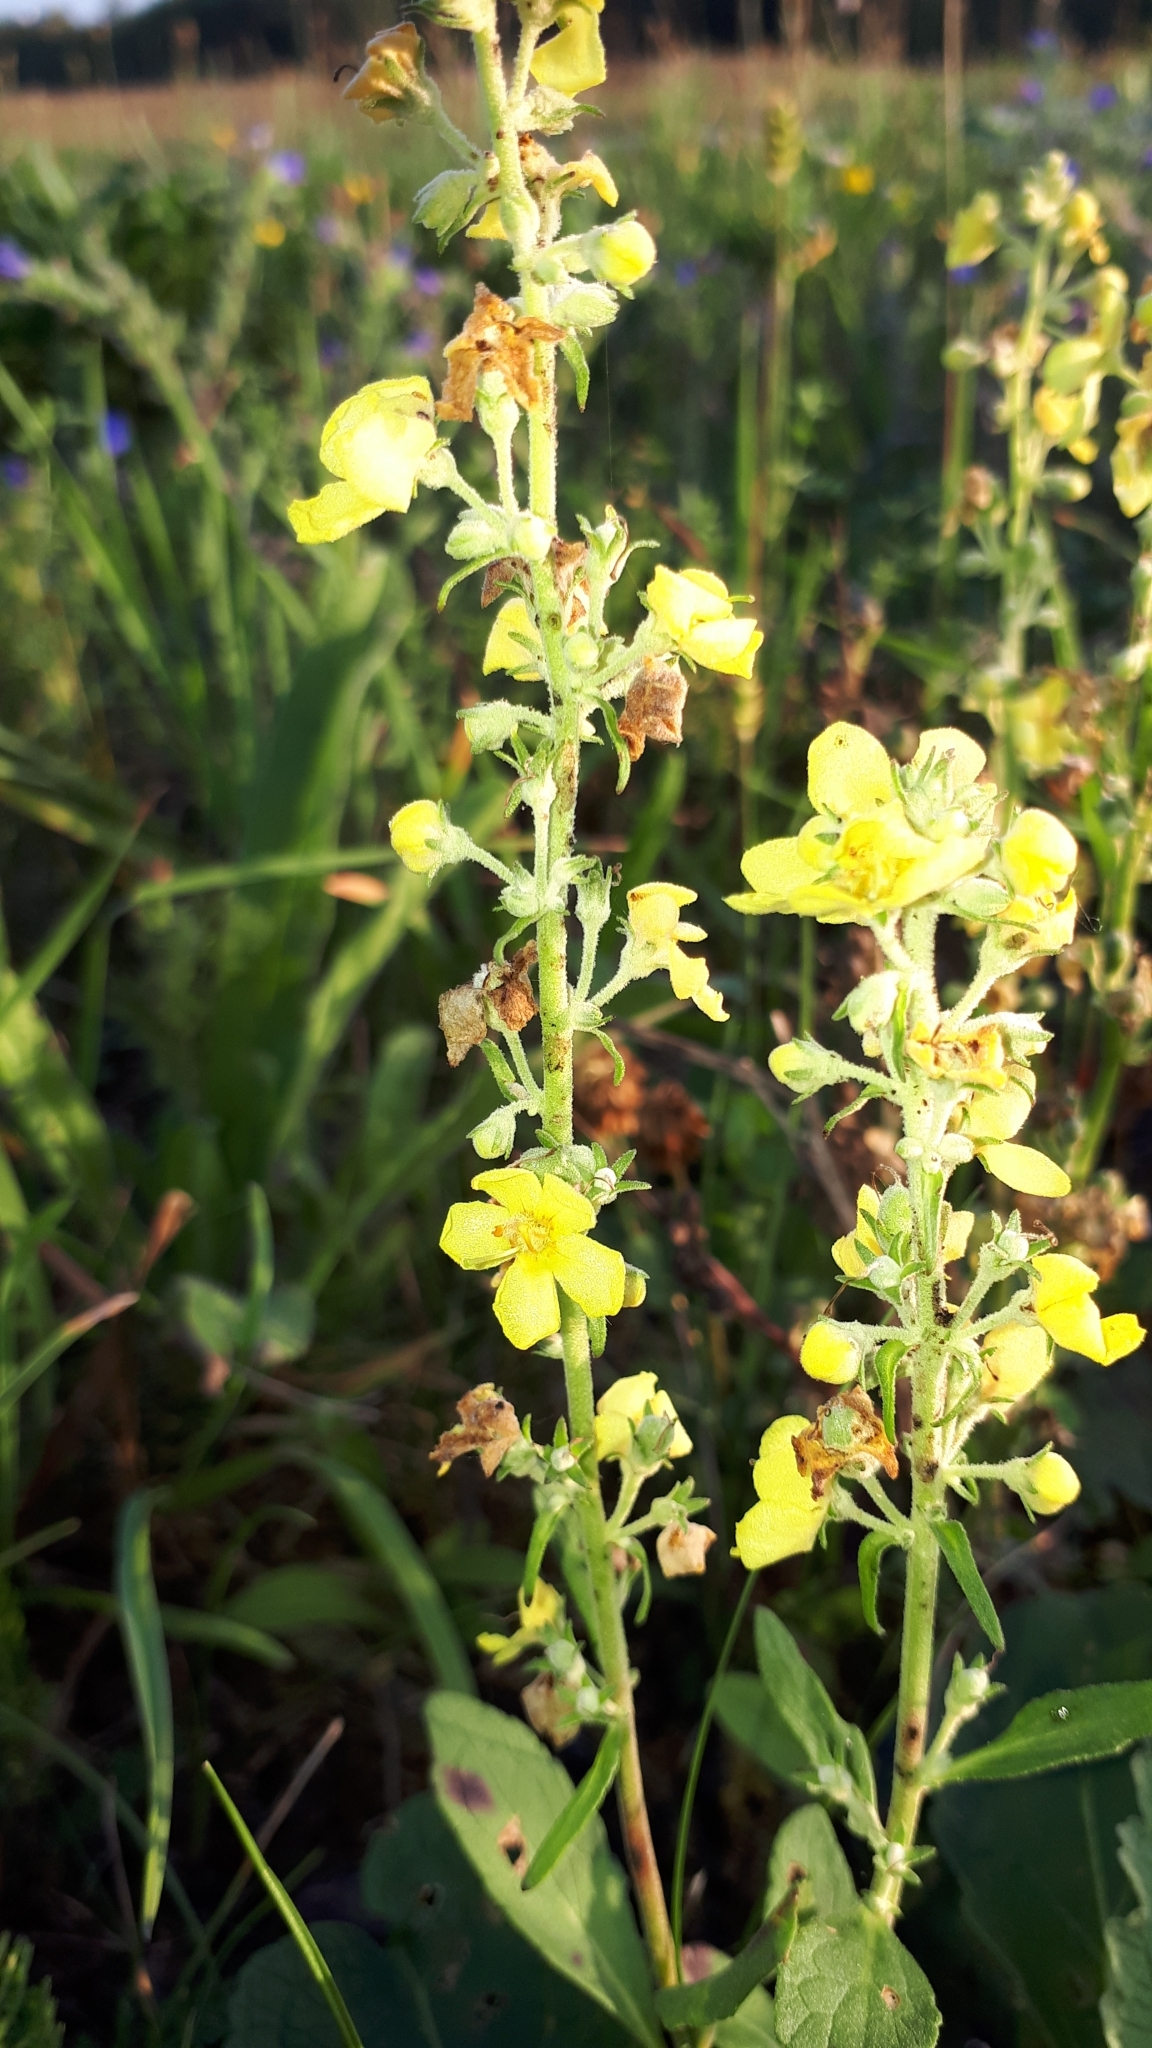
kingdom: Plantae
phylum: Tracheophyta
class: Magnoliopsida
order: Lamiales
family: Scrophulariaceae
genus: Verbascum
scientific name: Verbascum lychnitis
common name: White mullein
